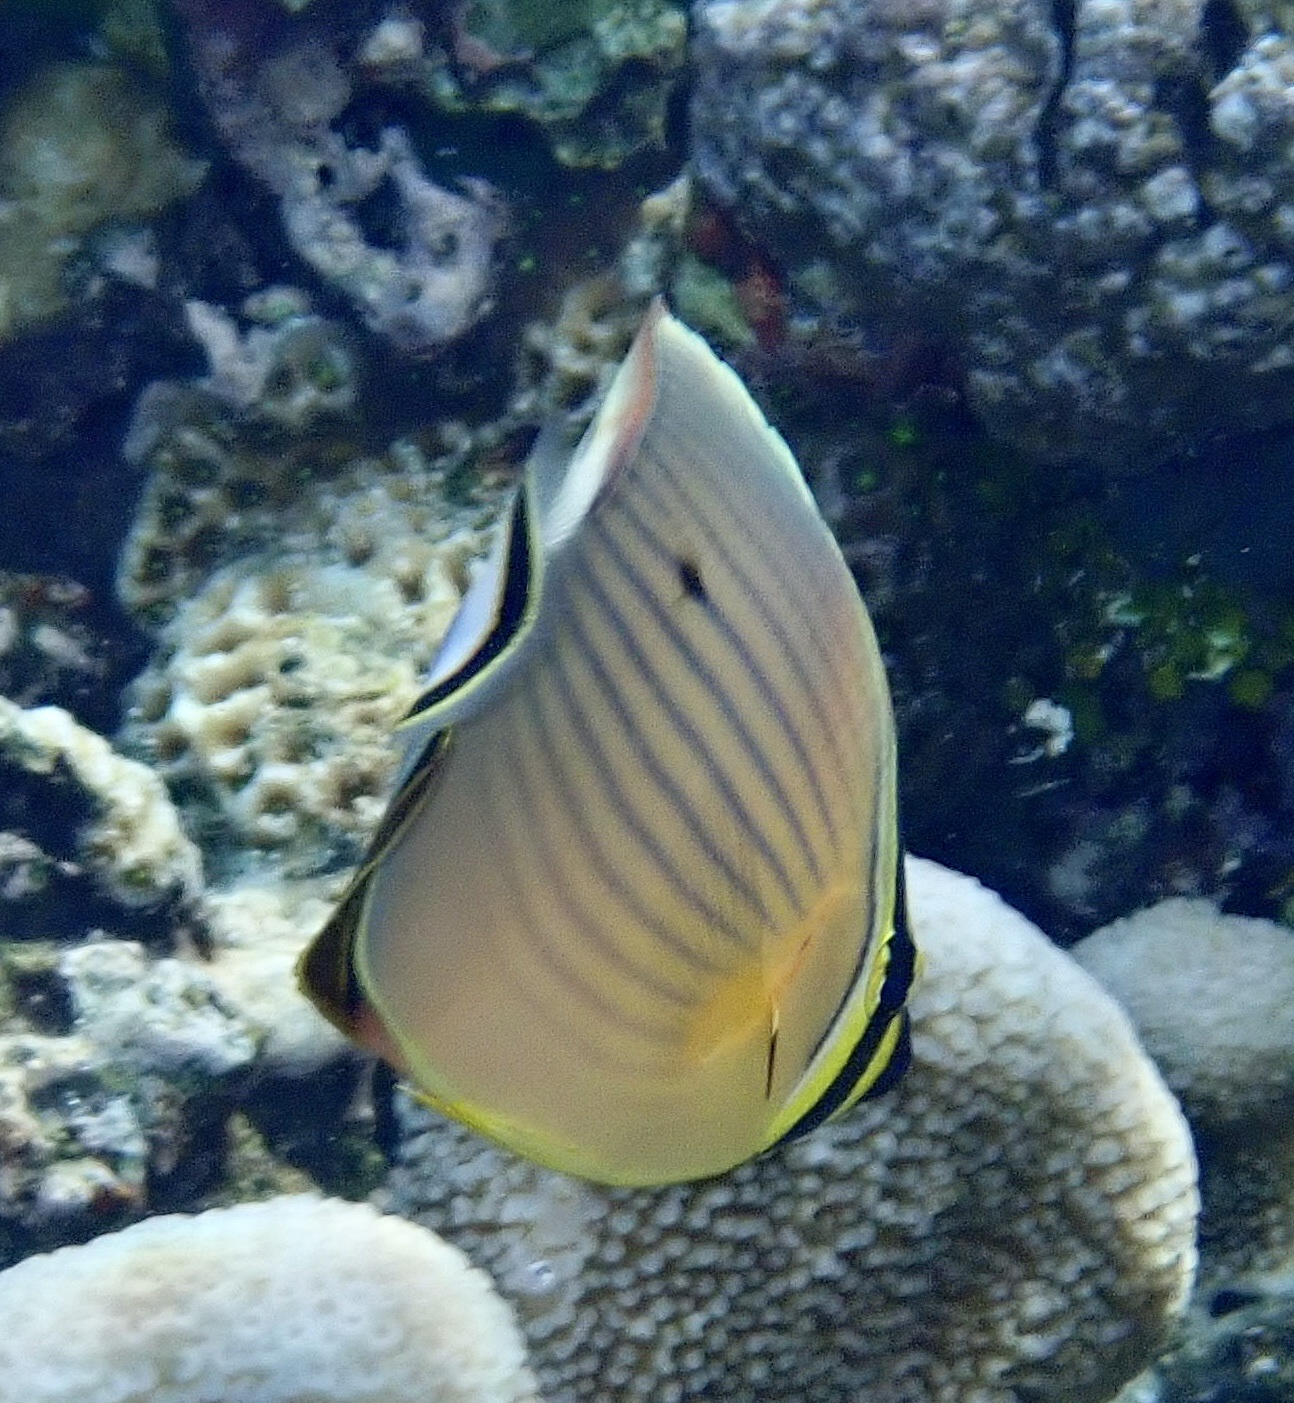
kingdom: Animalia
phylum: Chordata
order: Perciformes
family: Chaetodontidae
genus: Chaetodon
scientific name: Chaetodon lunulatus
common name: Redfin butterflyfish
